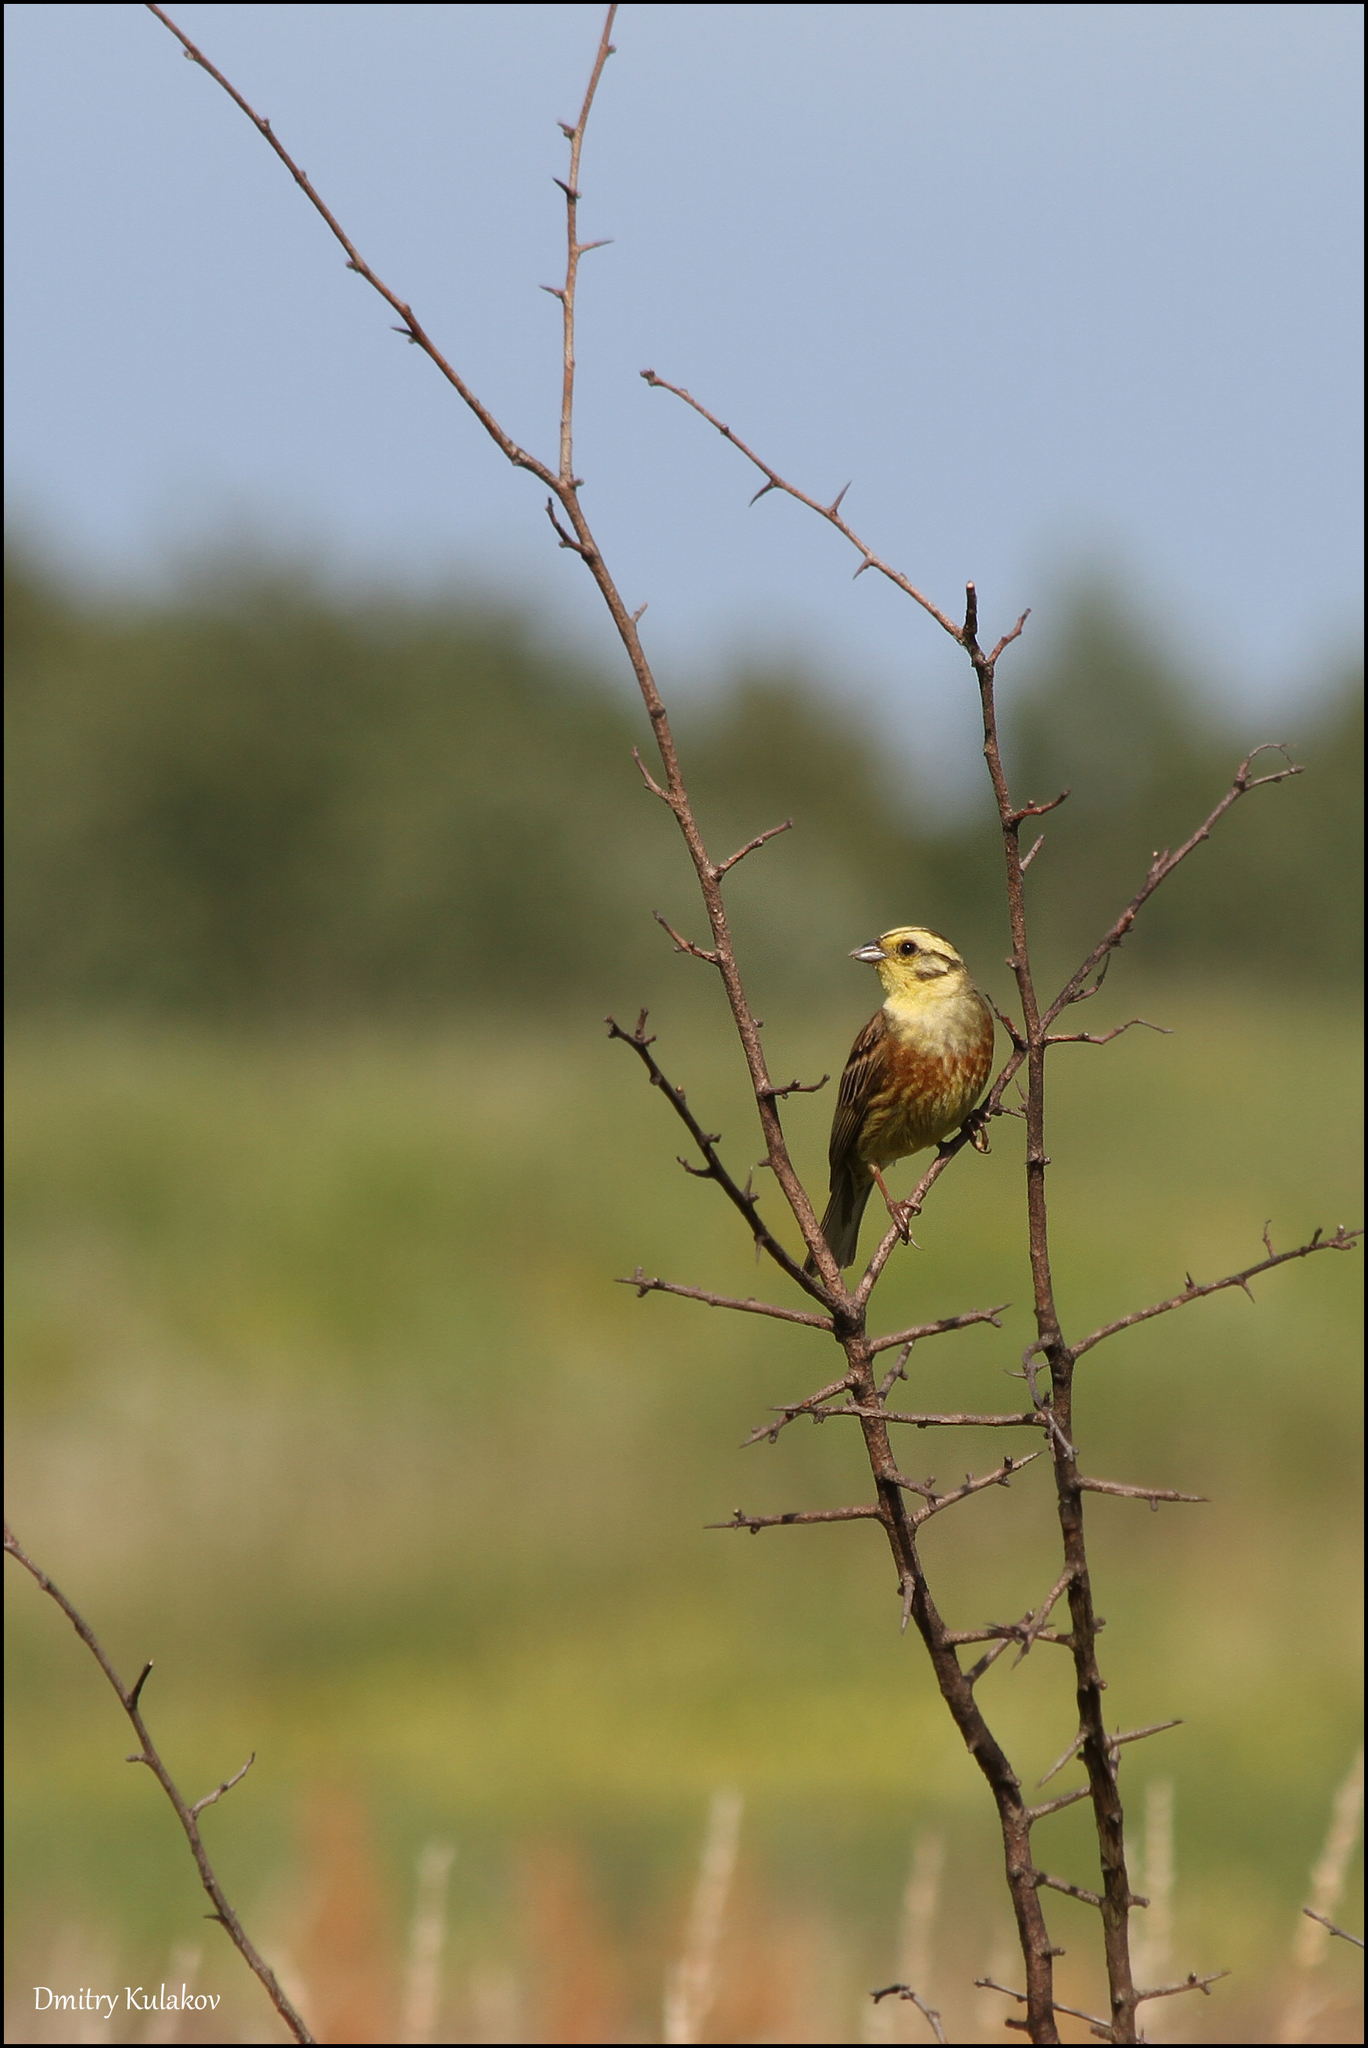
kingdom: Animalia
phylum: Chordata
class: Aves
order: Passeriformes
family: Emberizidae
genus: Emberiza
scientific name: Emberiza citrinella
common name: Yellowhammer
